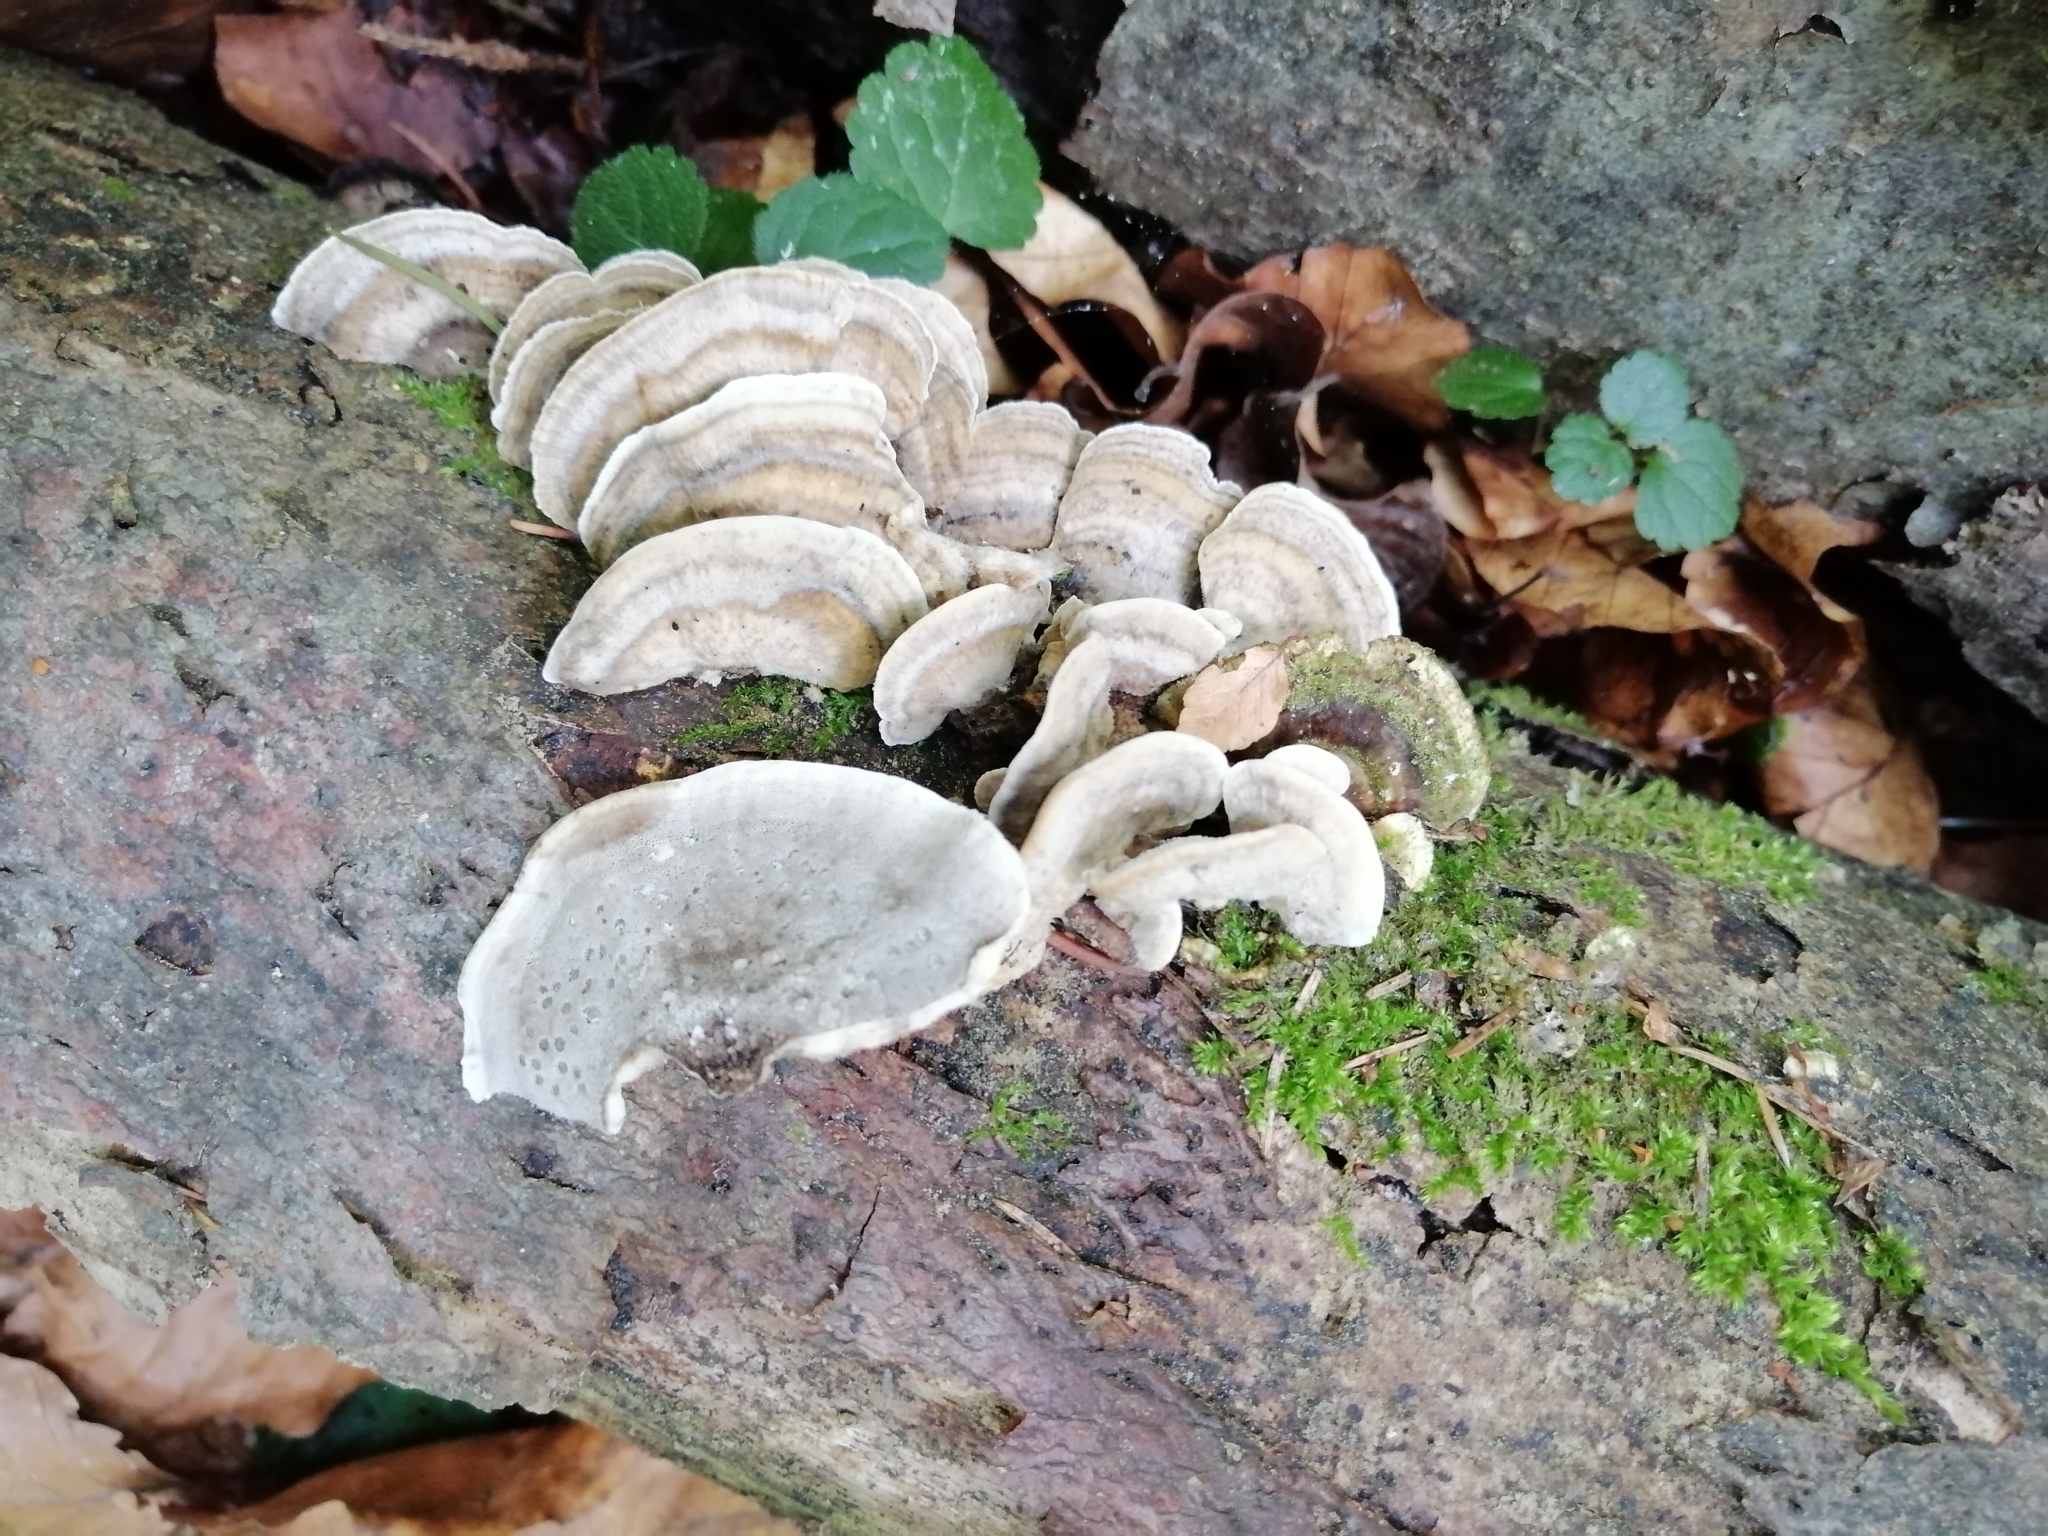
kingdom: Fungi
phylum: Basidiomycota
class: Agaricomycetes
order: Polyporales
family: Phanerochaetaceae
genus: Bjerkandera
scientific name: Bjerkandera adusta
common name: Smoky bracket
